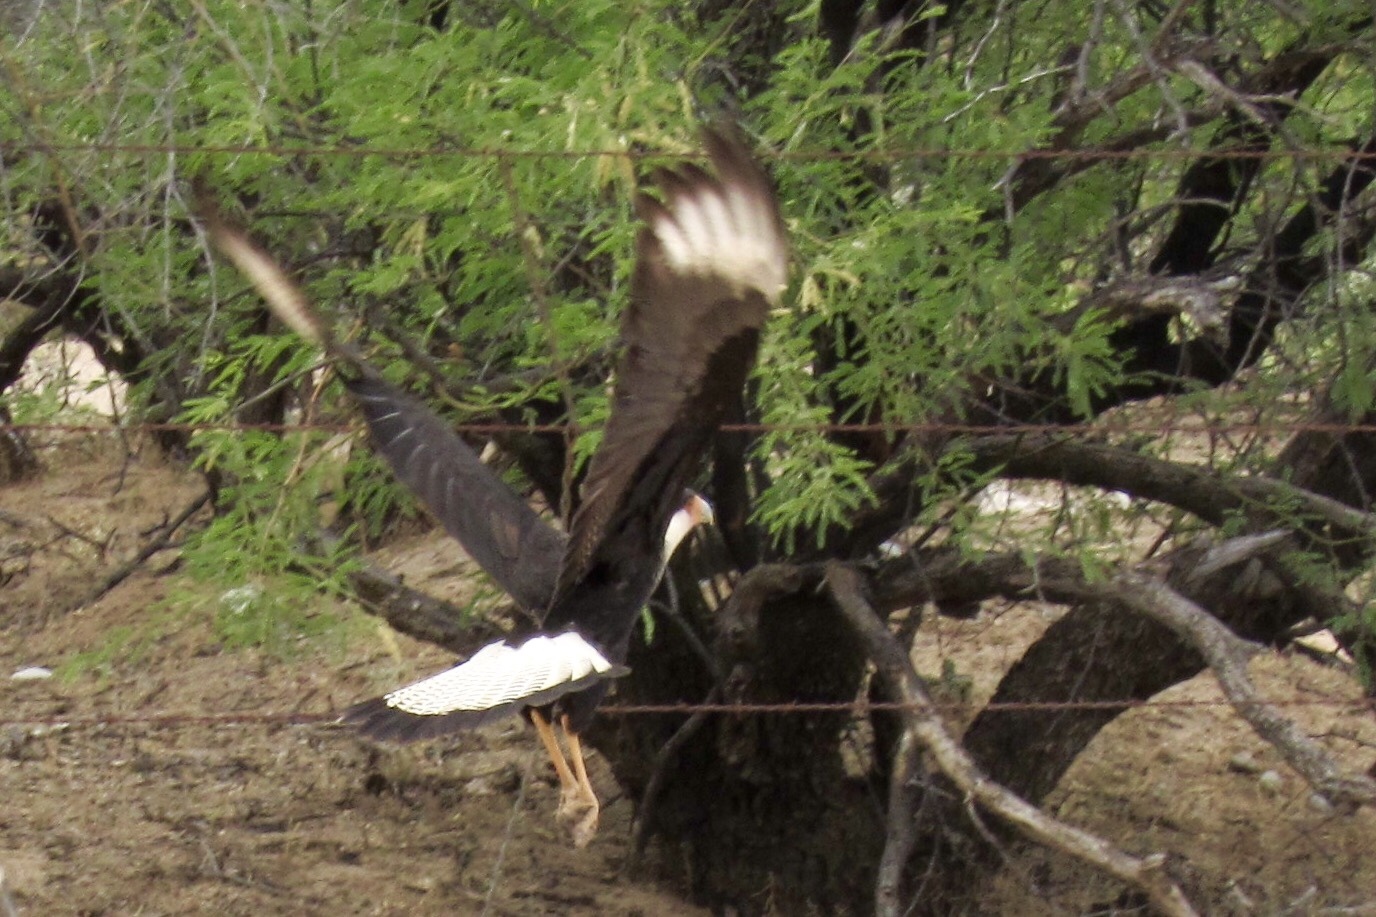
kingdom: Animalia
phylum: Chordata
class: Aves
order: Falconiformes
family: Falconidae
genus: Caracara
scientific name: Caracara plancus
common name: Southern caracara
